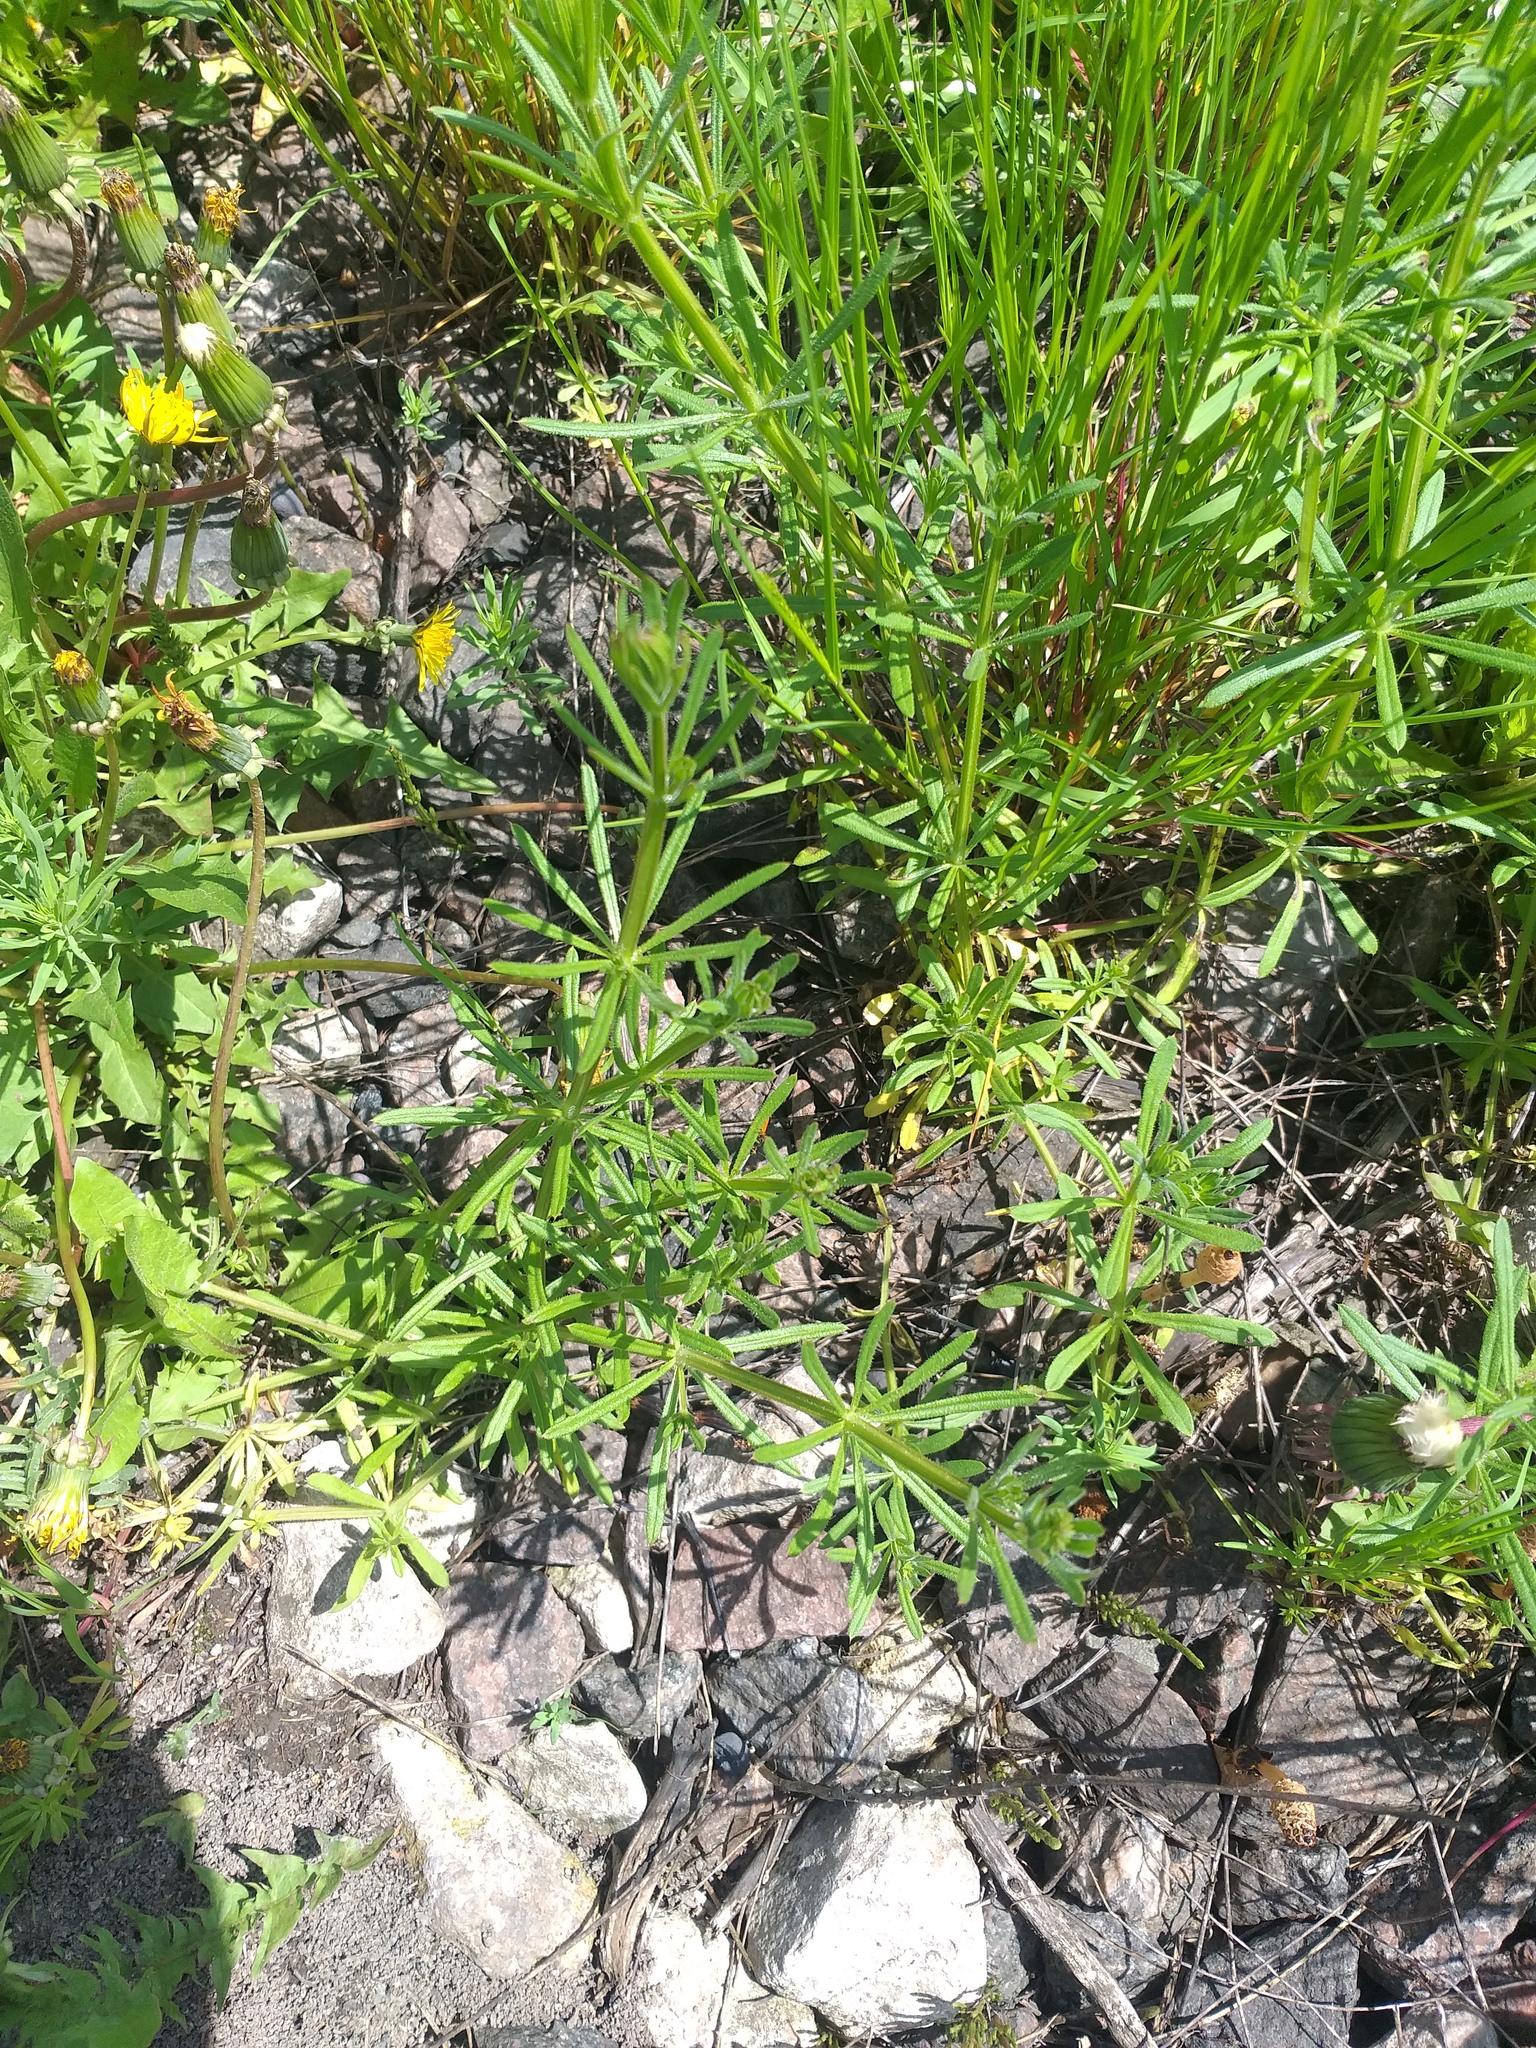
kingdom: Plantae
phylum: Tracheophyta
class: Magnoliopsida
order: Gentianales
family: Rubiaceae
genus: Galium
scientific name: Galium
